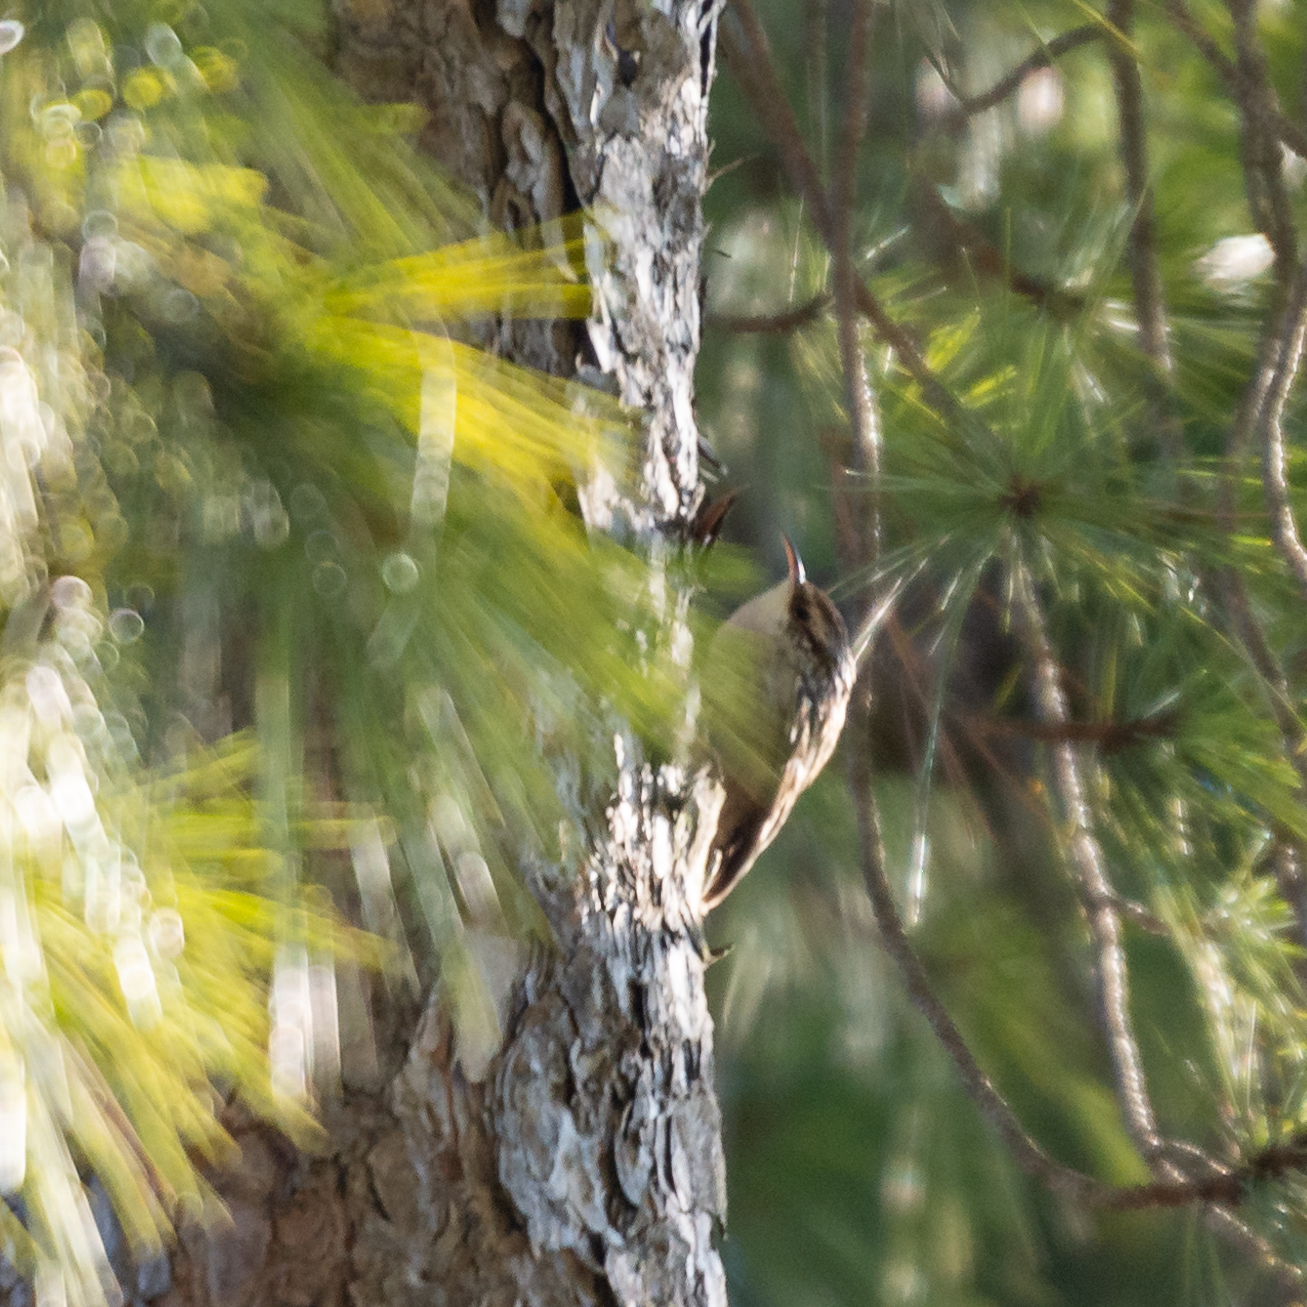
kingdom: Animalia
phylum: Chordata
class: Aves
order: Passeriformes
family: Certhiidae
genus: Certhia
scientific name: Certhia brachydactyla
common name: Short-toed treecreeper
